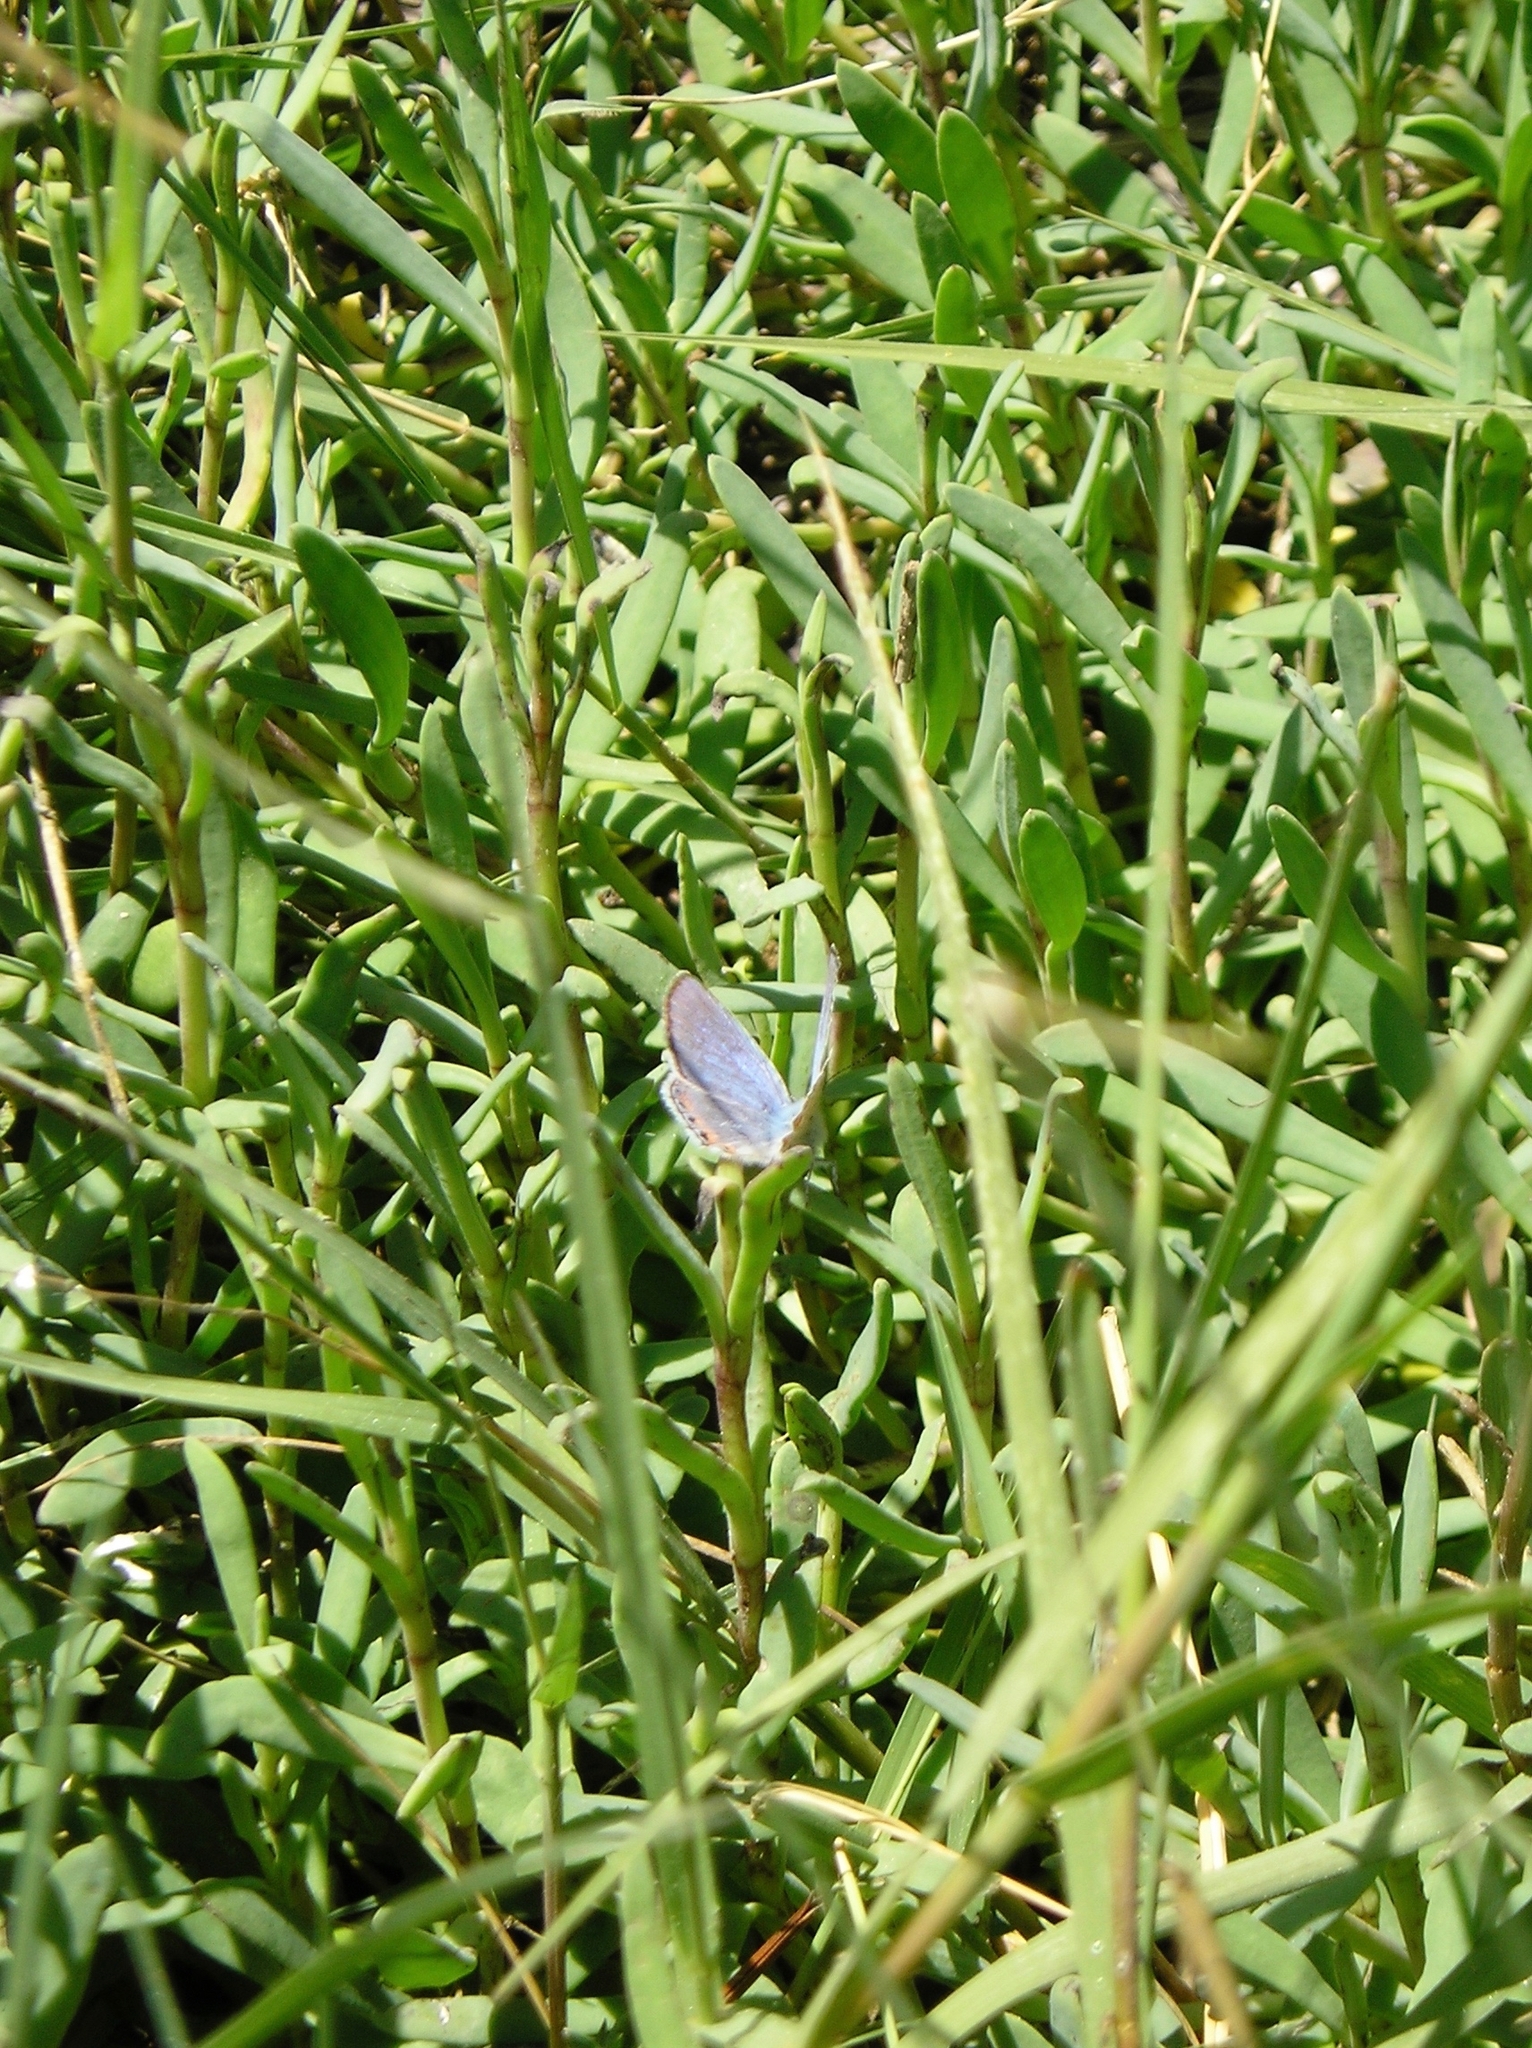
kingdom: Animalia
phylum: Arthropoda
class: Insecta
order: Lepidoptera
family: Lycaenidae
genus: Icaricia
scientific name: Icaricia acmon
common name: Acmon blue
